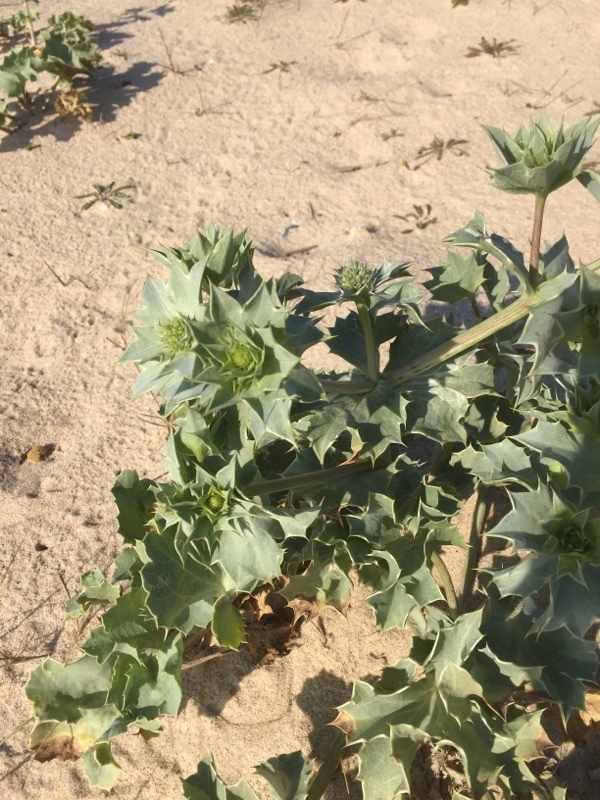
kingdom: Plantae
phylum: Tracheophyta
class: Magnoliopsida
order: Apiales
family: Apiaceae
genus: Eryngium
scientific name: Eryngium maritimum
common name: Sea-holly
